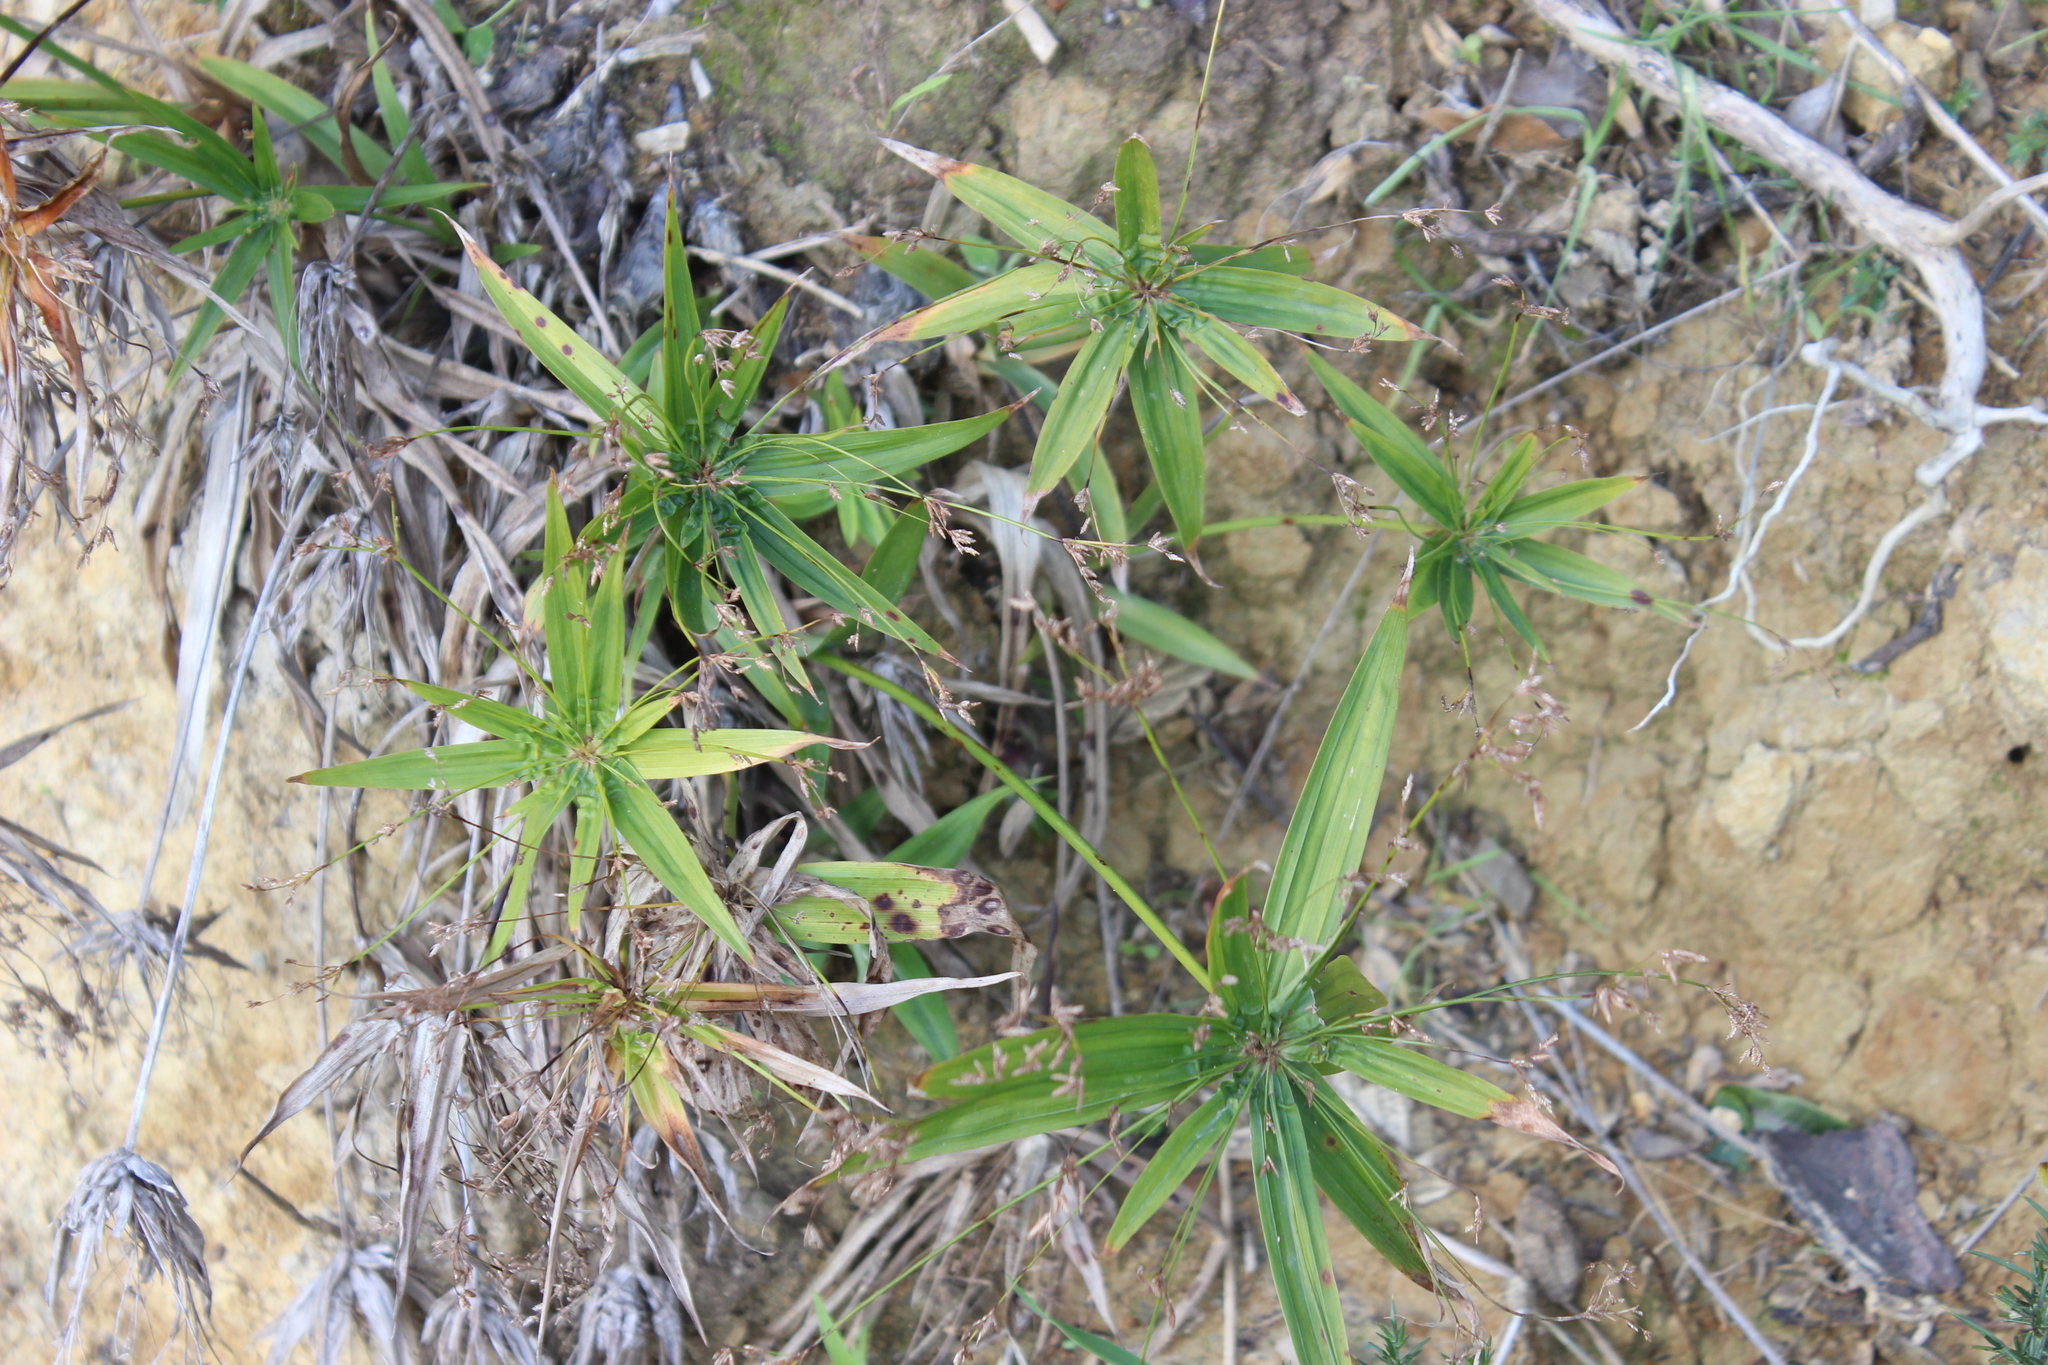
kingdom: Plantae
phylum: Tracheophyta
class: Liliopsida
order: Poales
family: Cyperaceae
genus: Cyperus
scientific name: Cyperus albostriatus
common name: Dwarf umbrella-grass
